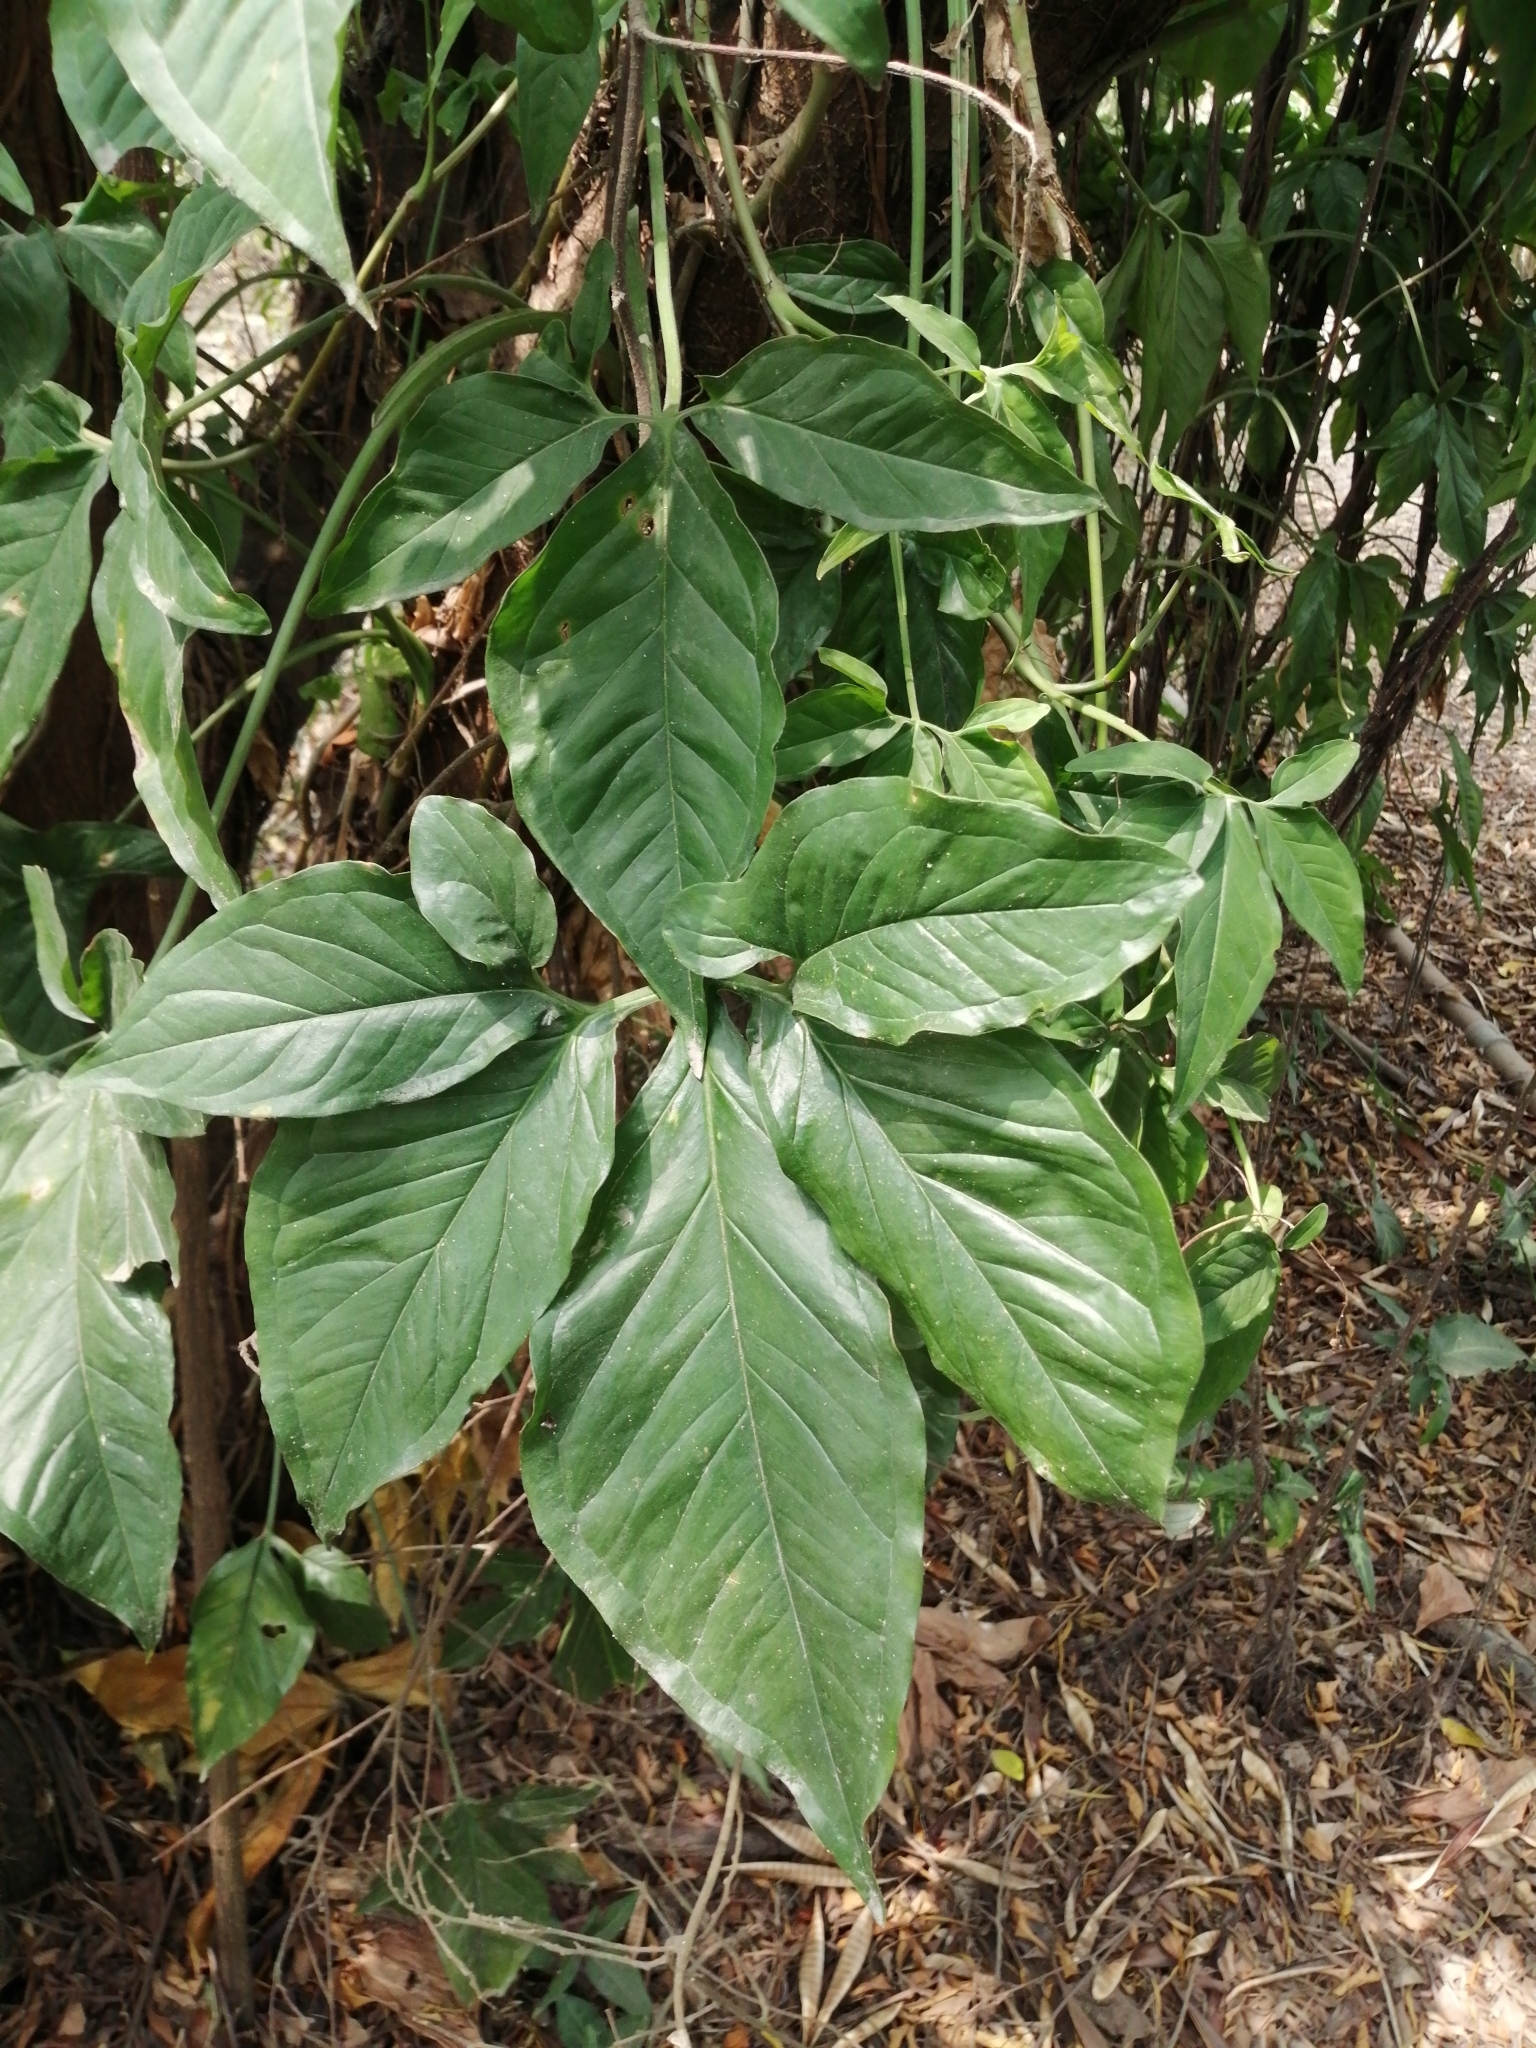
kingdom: Plantae
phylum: Tracheophyta
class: Liliopsida
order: Alismatales
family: Araceae
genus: Syngonium
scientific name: Syngonium angustatum
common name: Fivefingers
